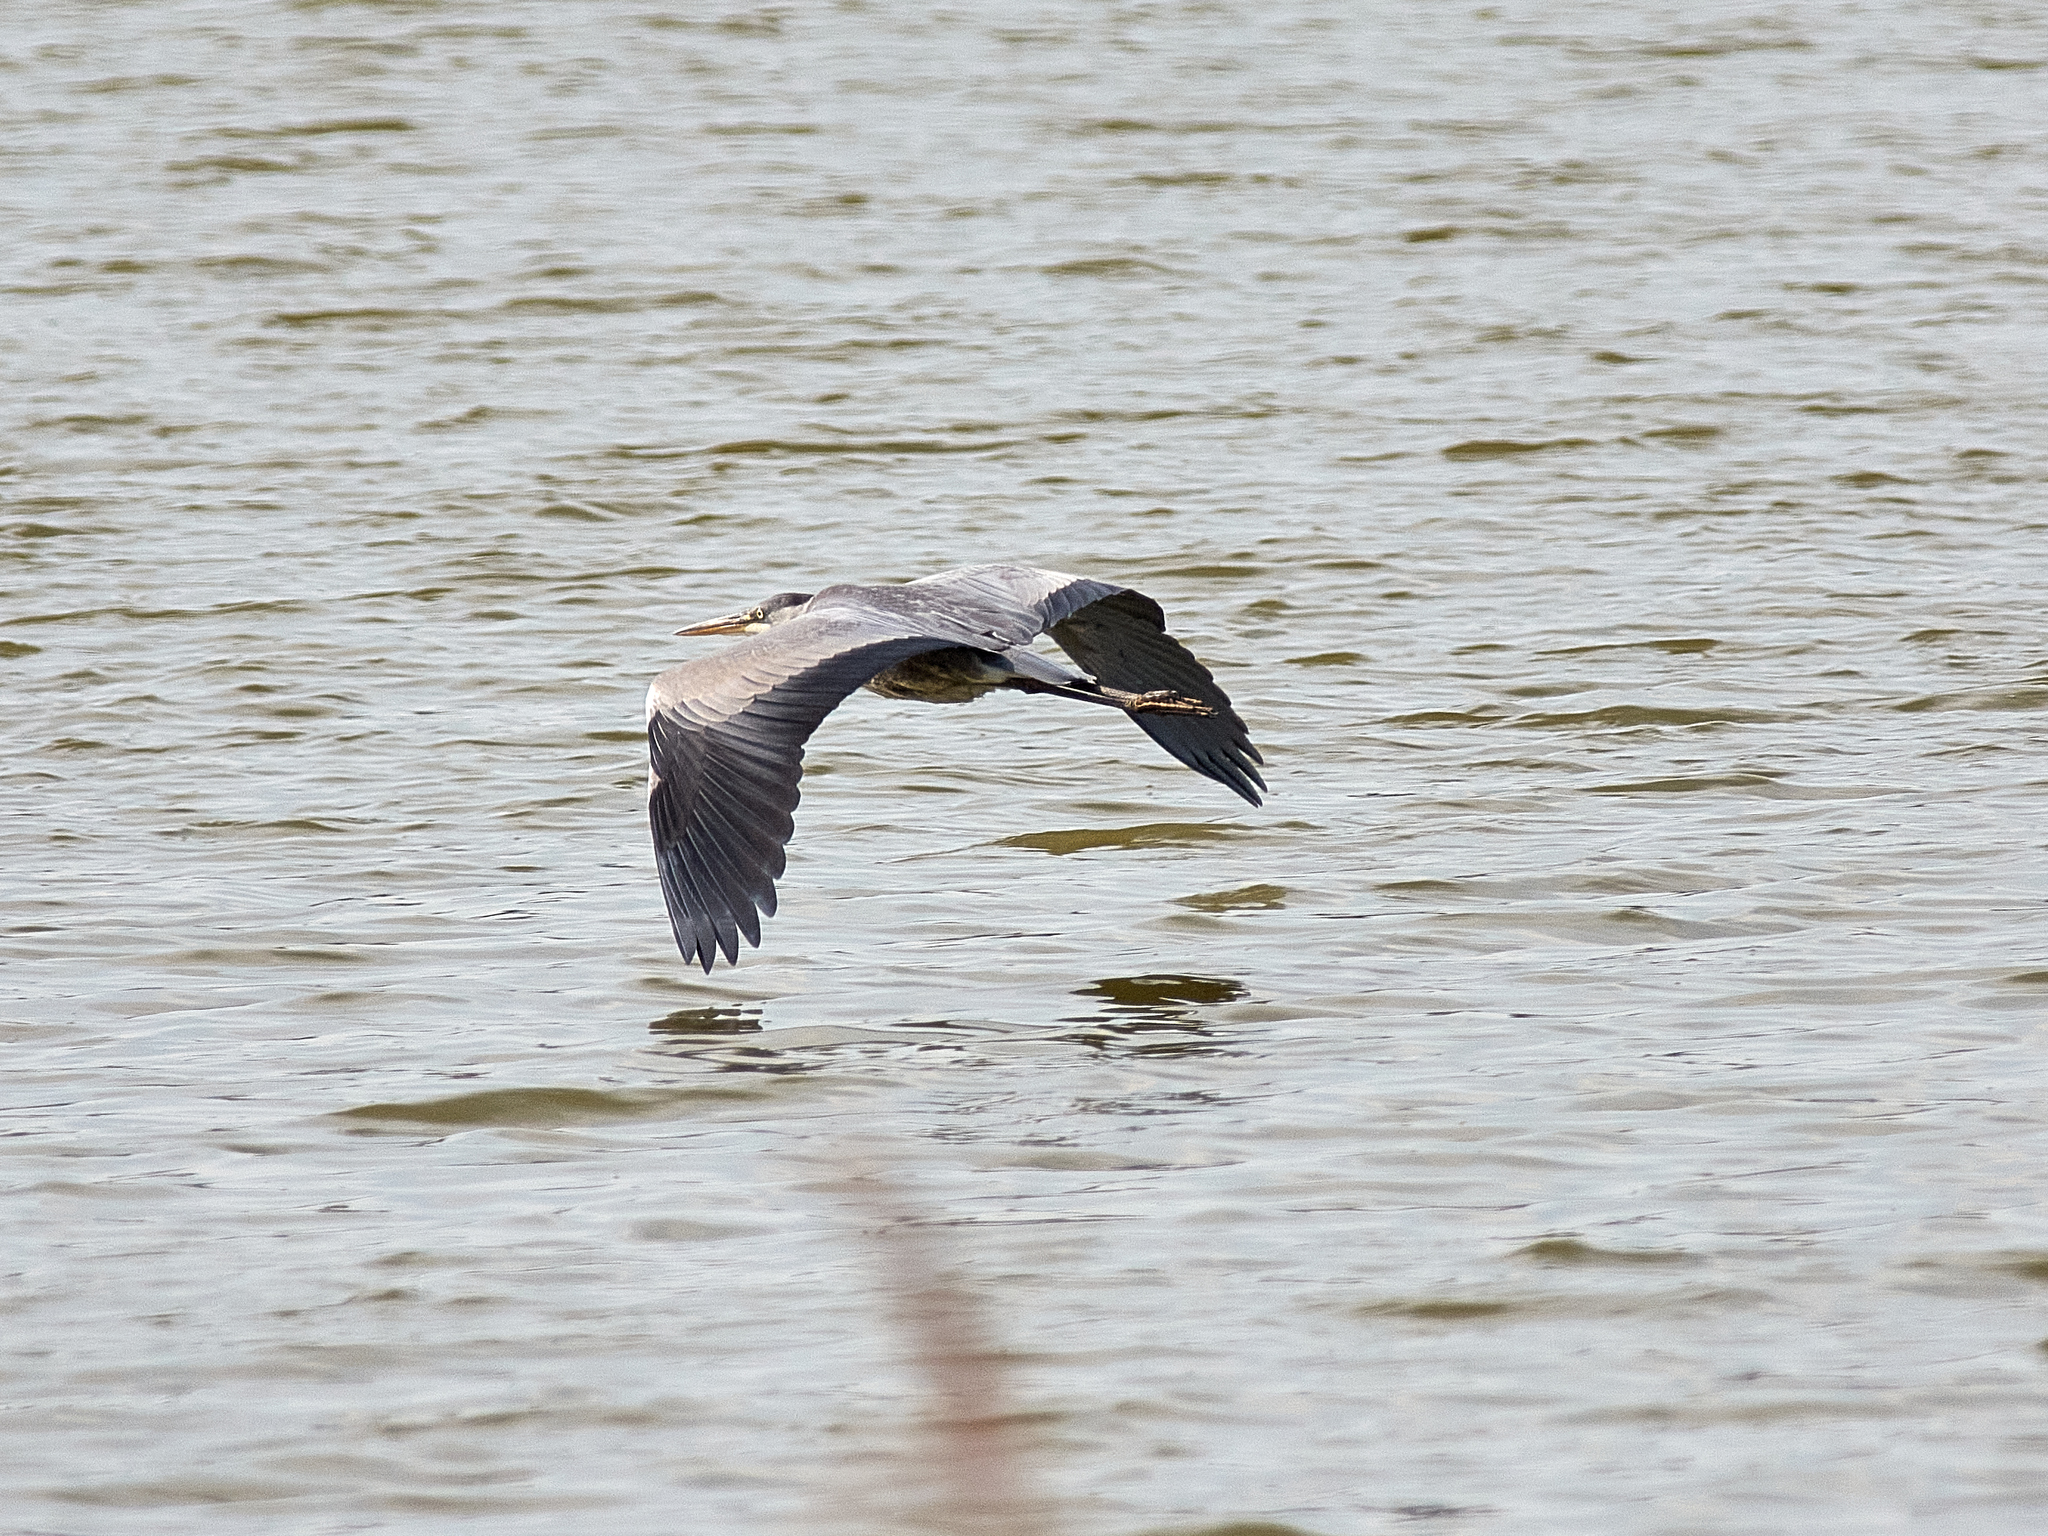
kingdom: Animalia
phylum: Chordata
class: Aves
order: Pelecaniformes
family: Ardeidae
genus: Ardea
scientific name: Ardea cinerea
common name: Grey heron
